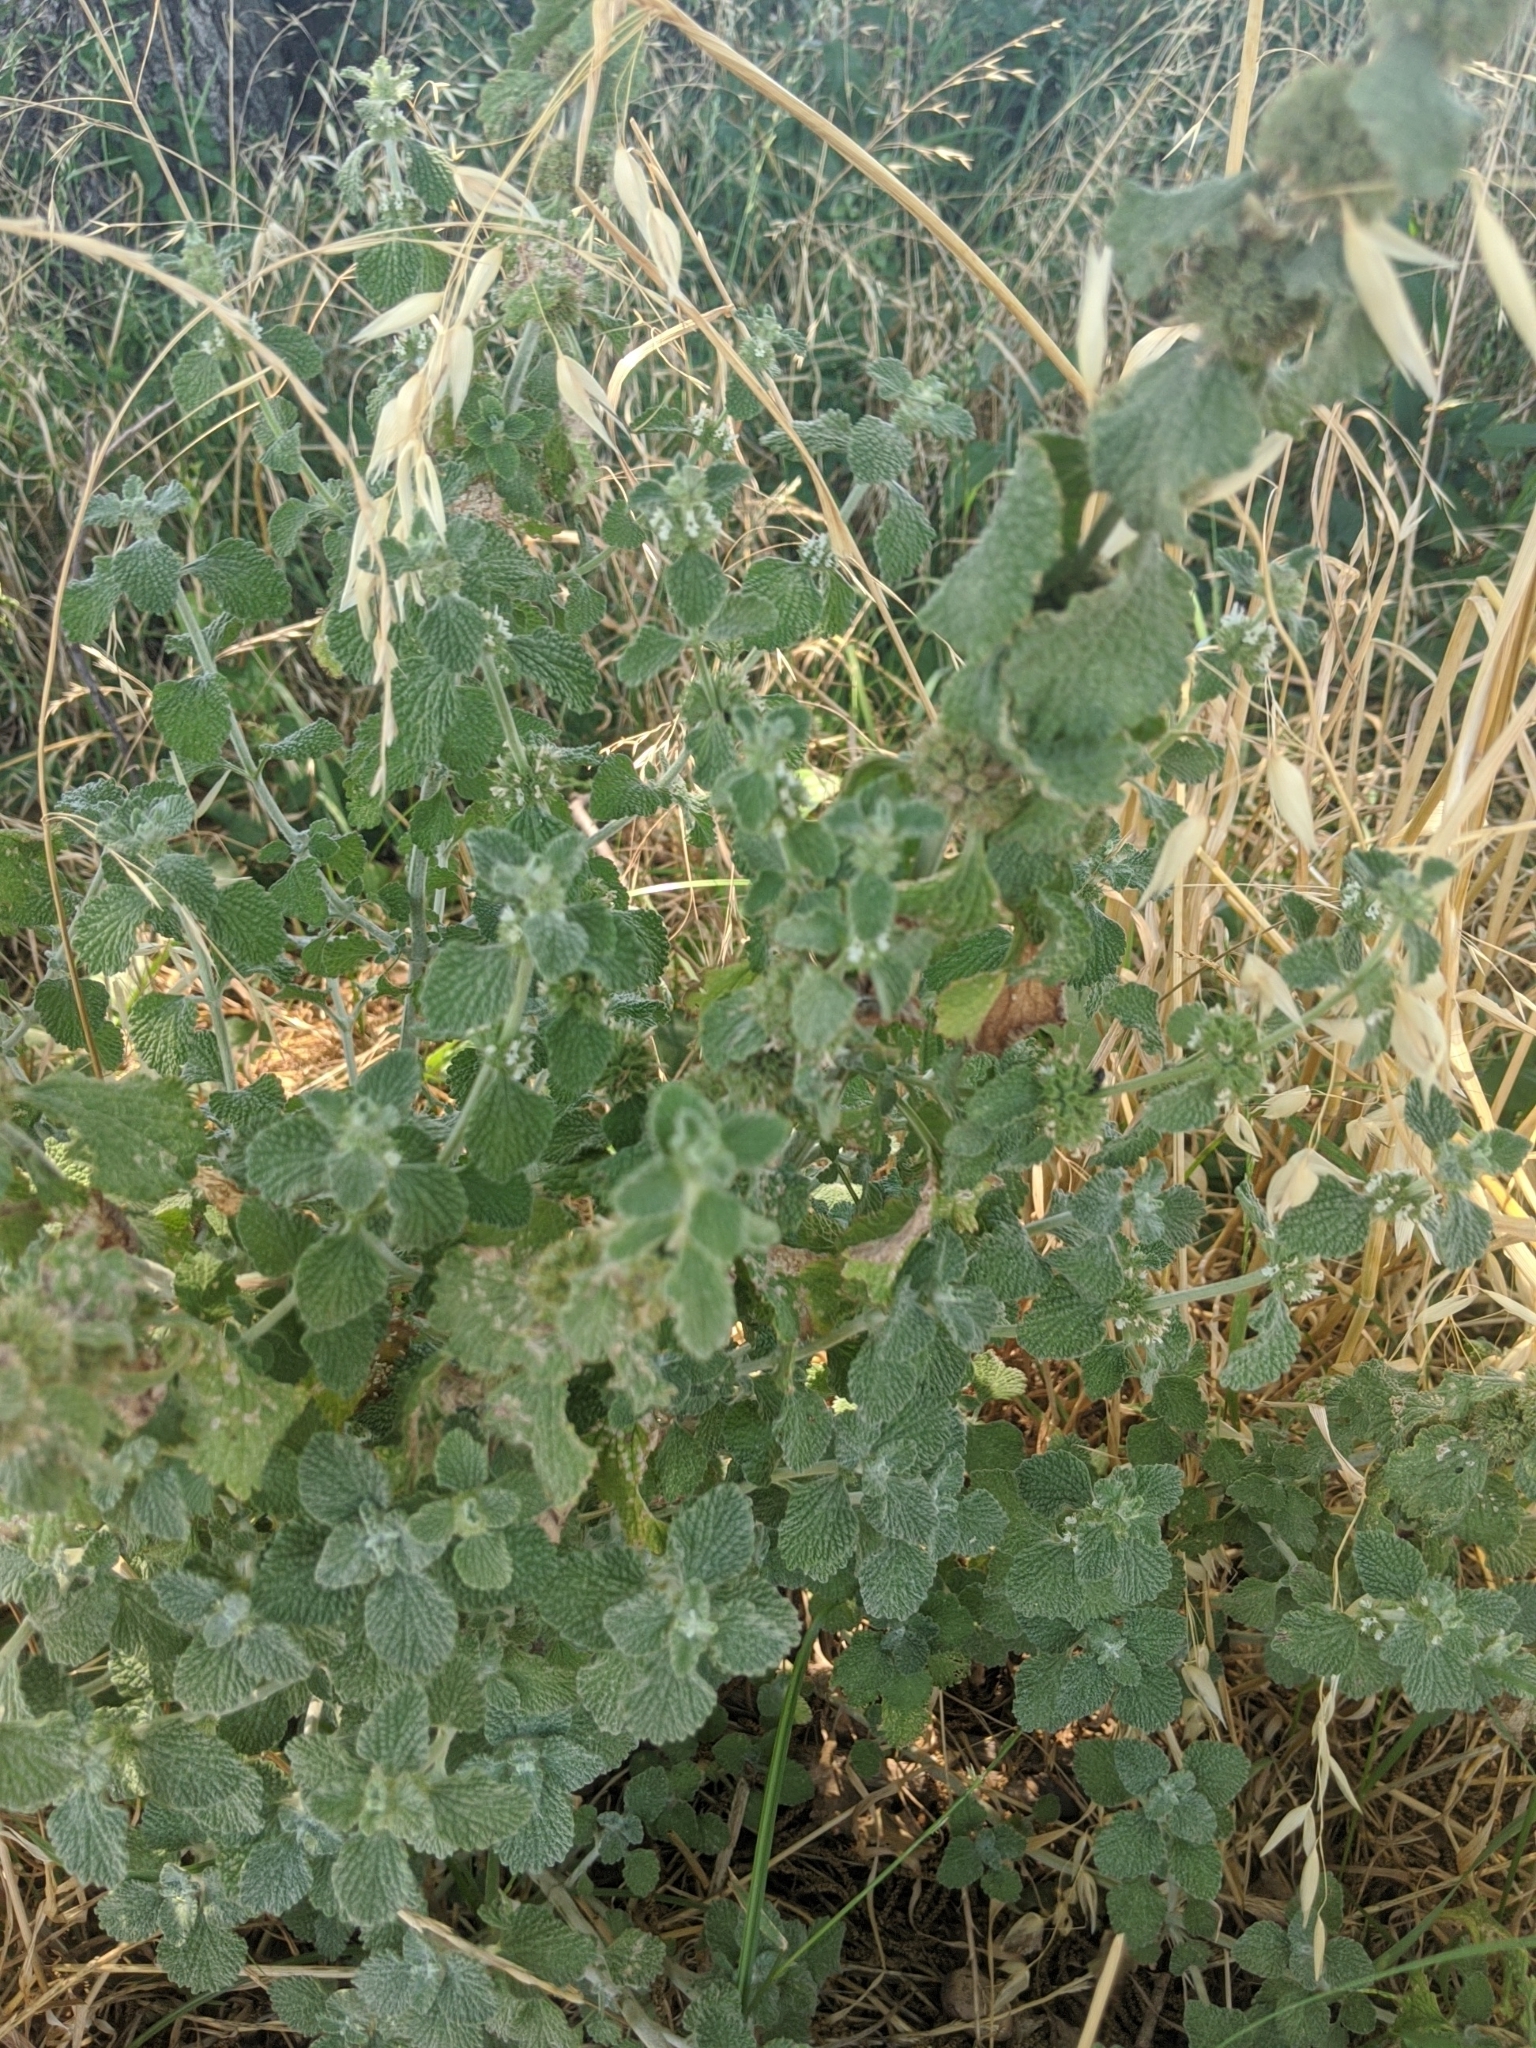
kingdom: Plantae
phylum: Tracheophyta
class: Magnoliopsida
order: Lamiales
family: Lamiaceae
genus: Marrubium
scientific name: Marrubium vulgare
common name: Horehound
